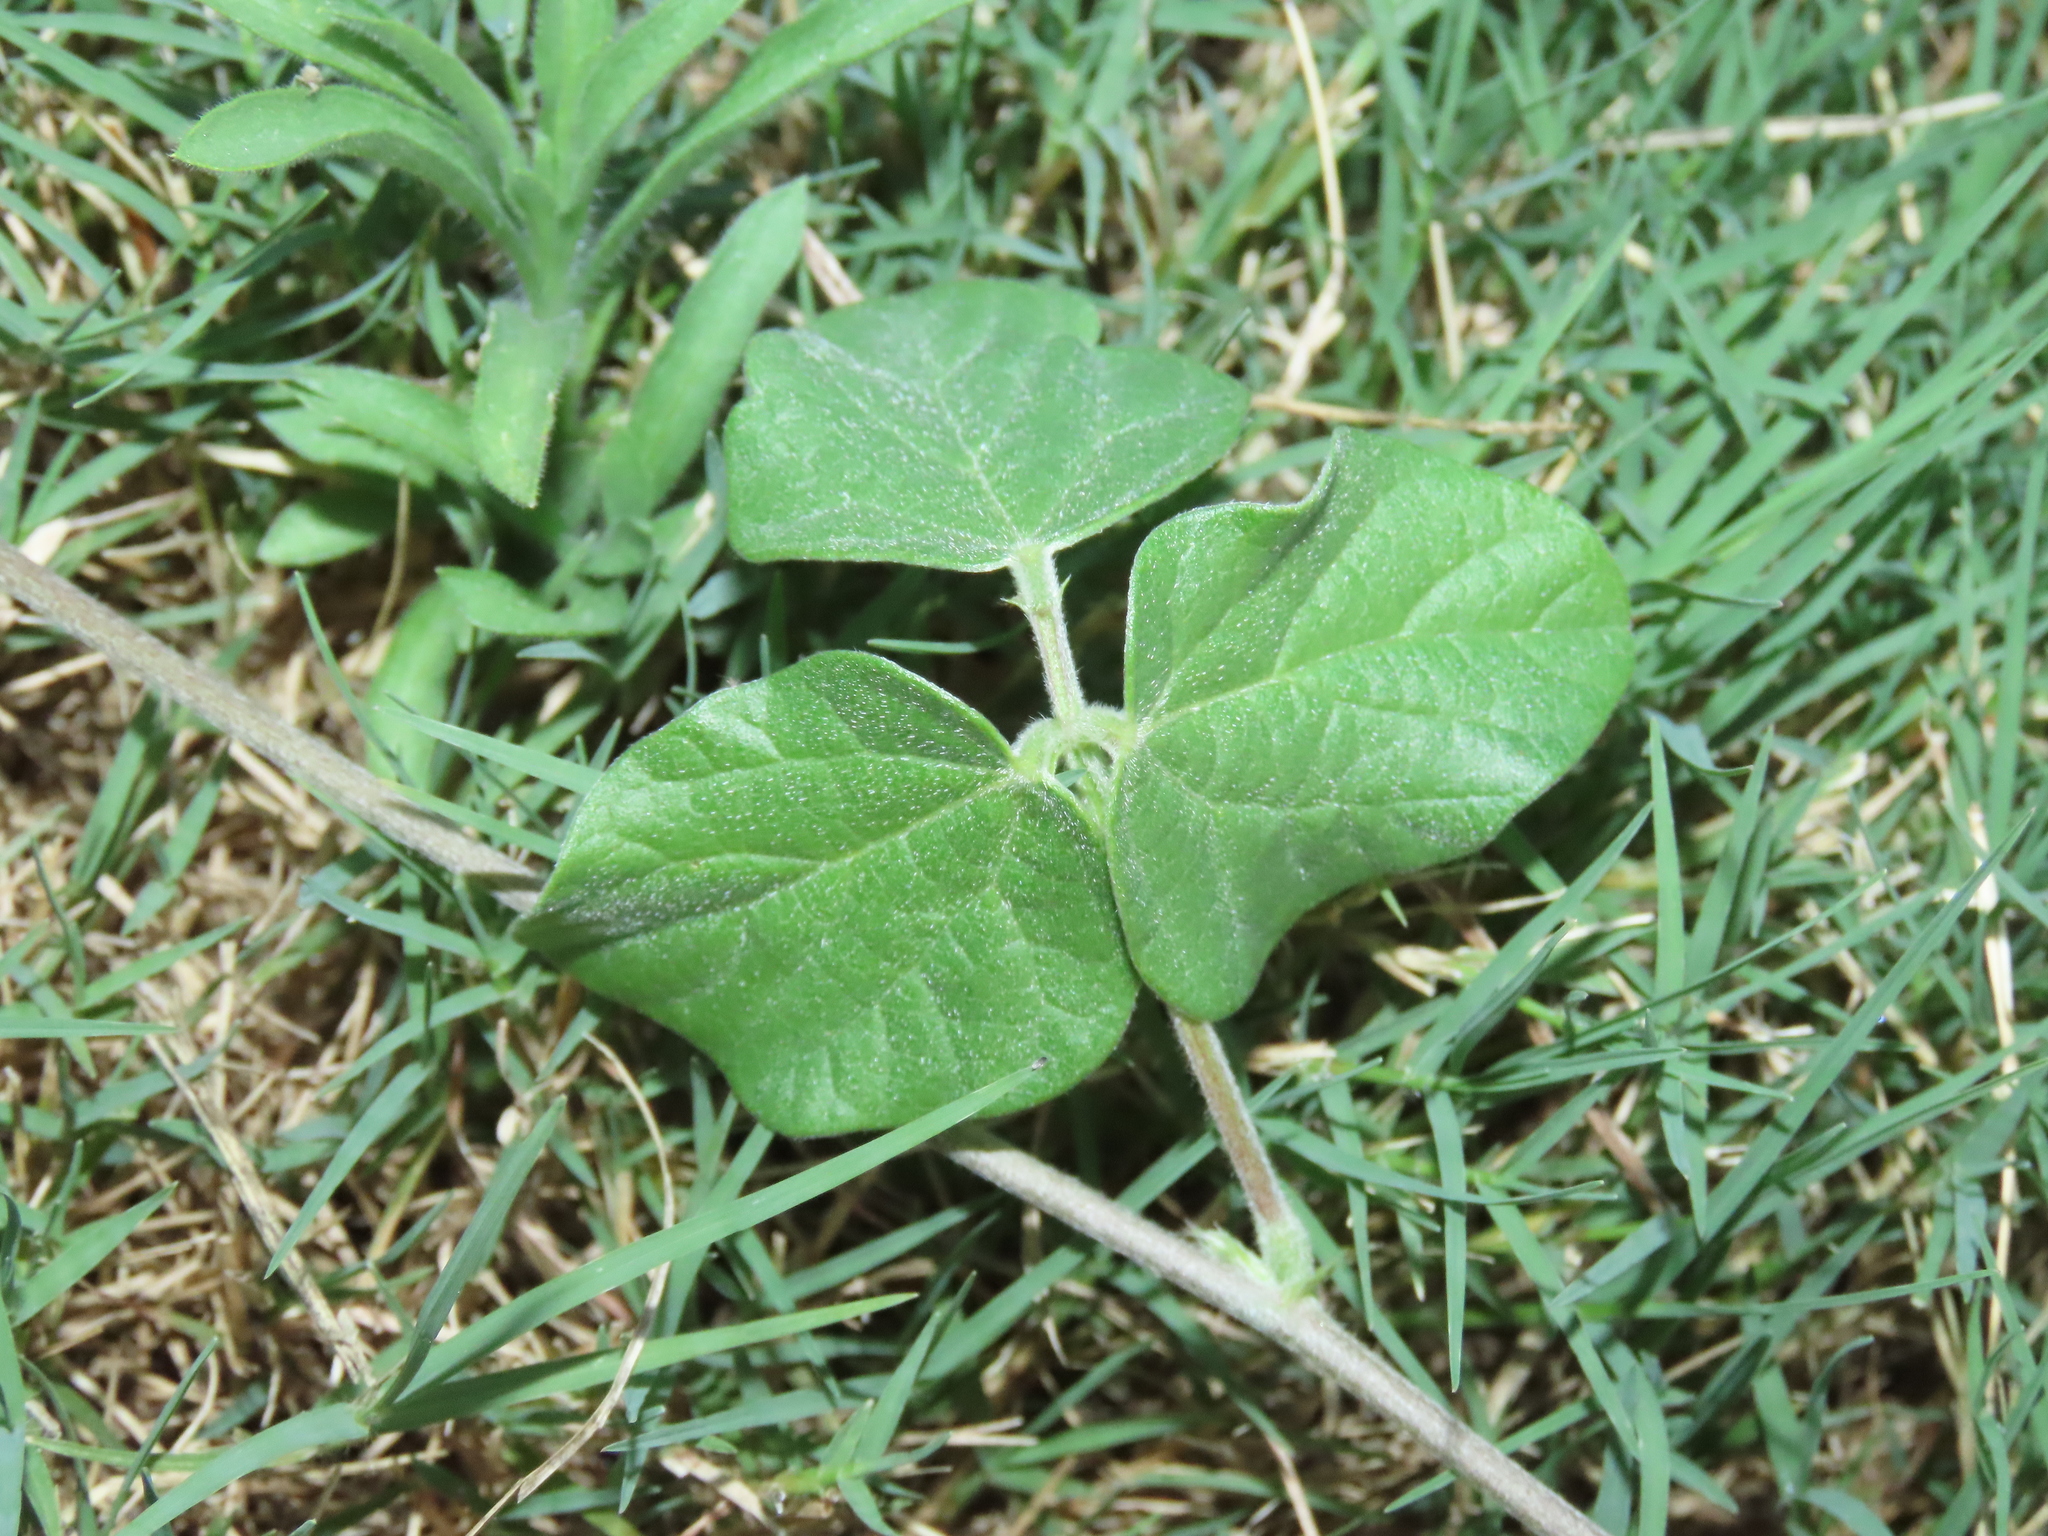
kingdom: Plantae
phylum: Tracheophyta
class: Magnoliopsida
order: Fabales
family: Fabaceae
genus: Macroptilium
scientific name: Macroptilium atropurpureum
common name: Purple bushbean
